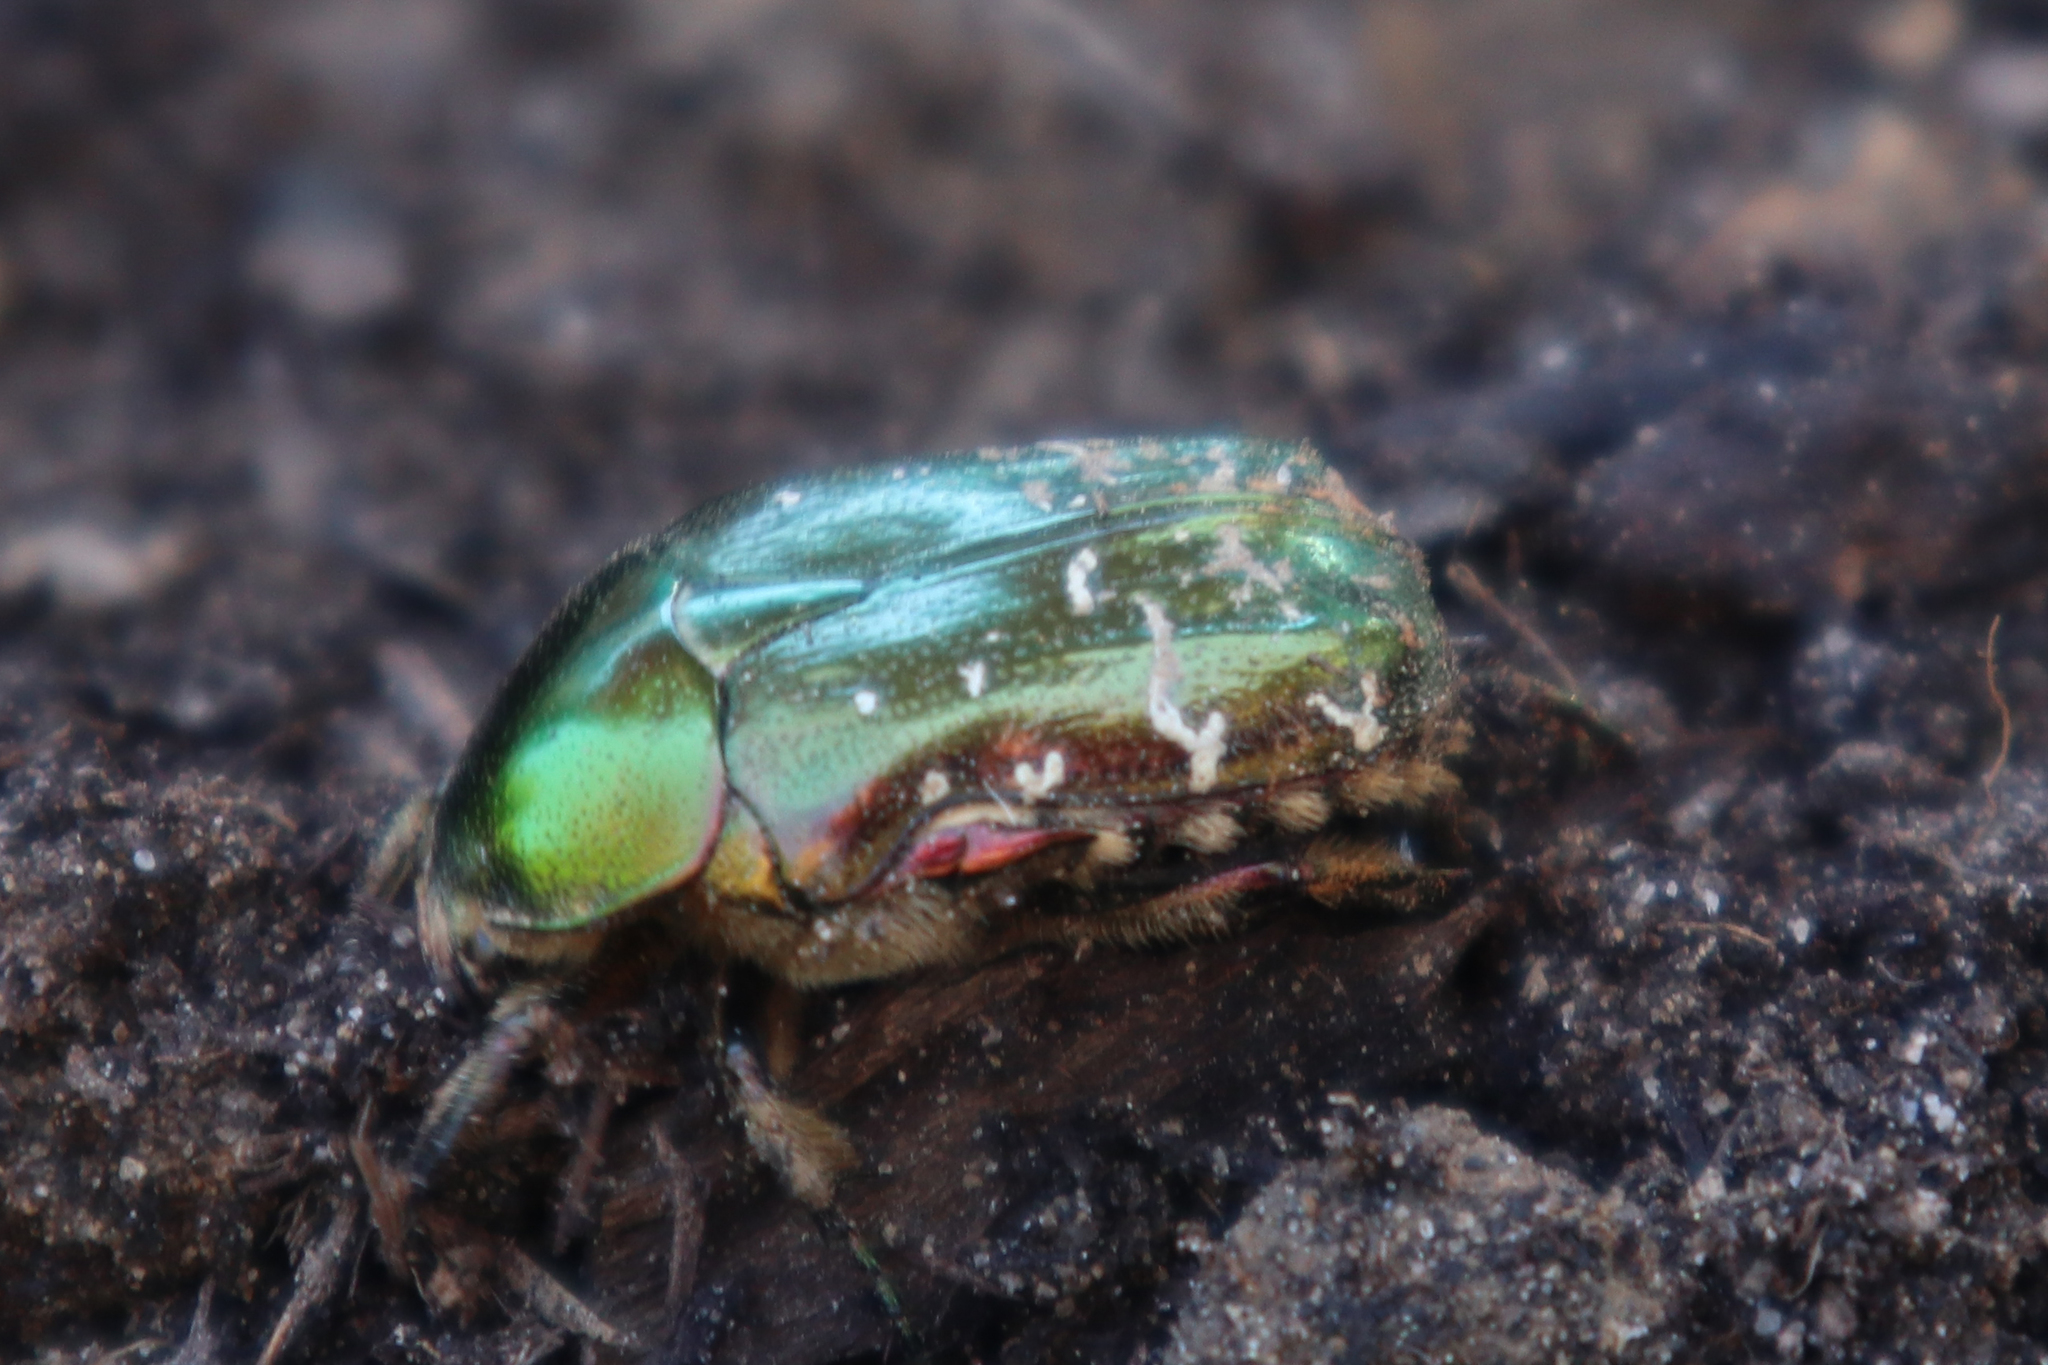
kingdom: Animalia
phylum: Arthropoda
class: Insecta
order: Coleoptera
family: Scarabaeidae
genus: Cetonia
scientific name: Cetonia aurata
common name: Rose chafer
